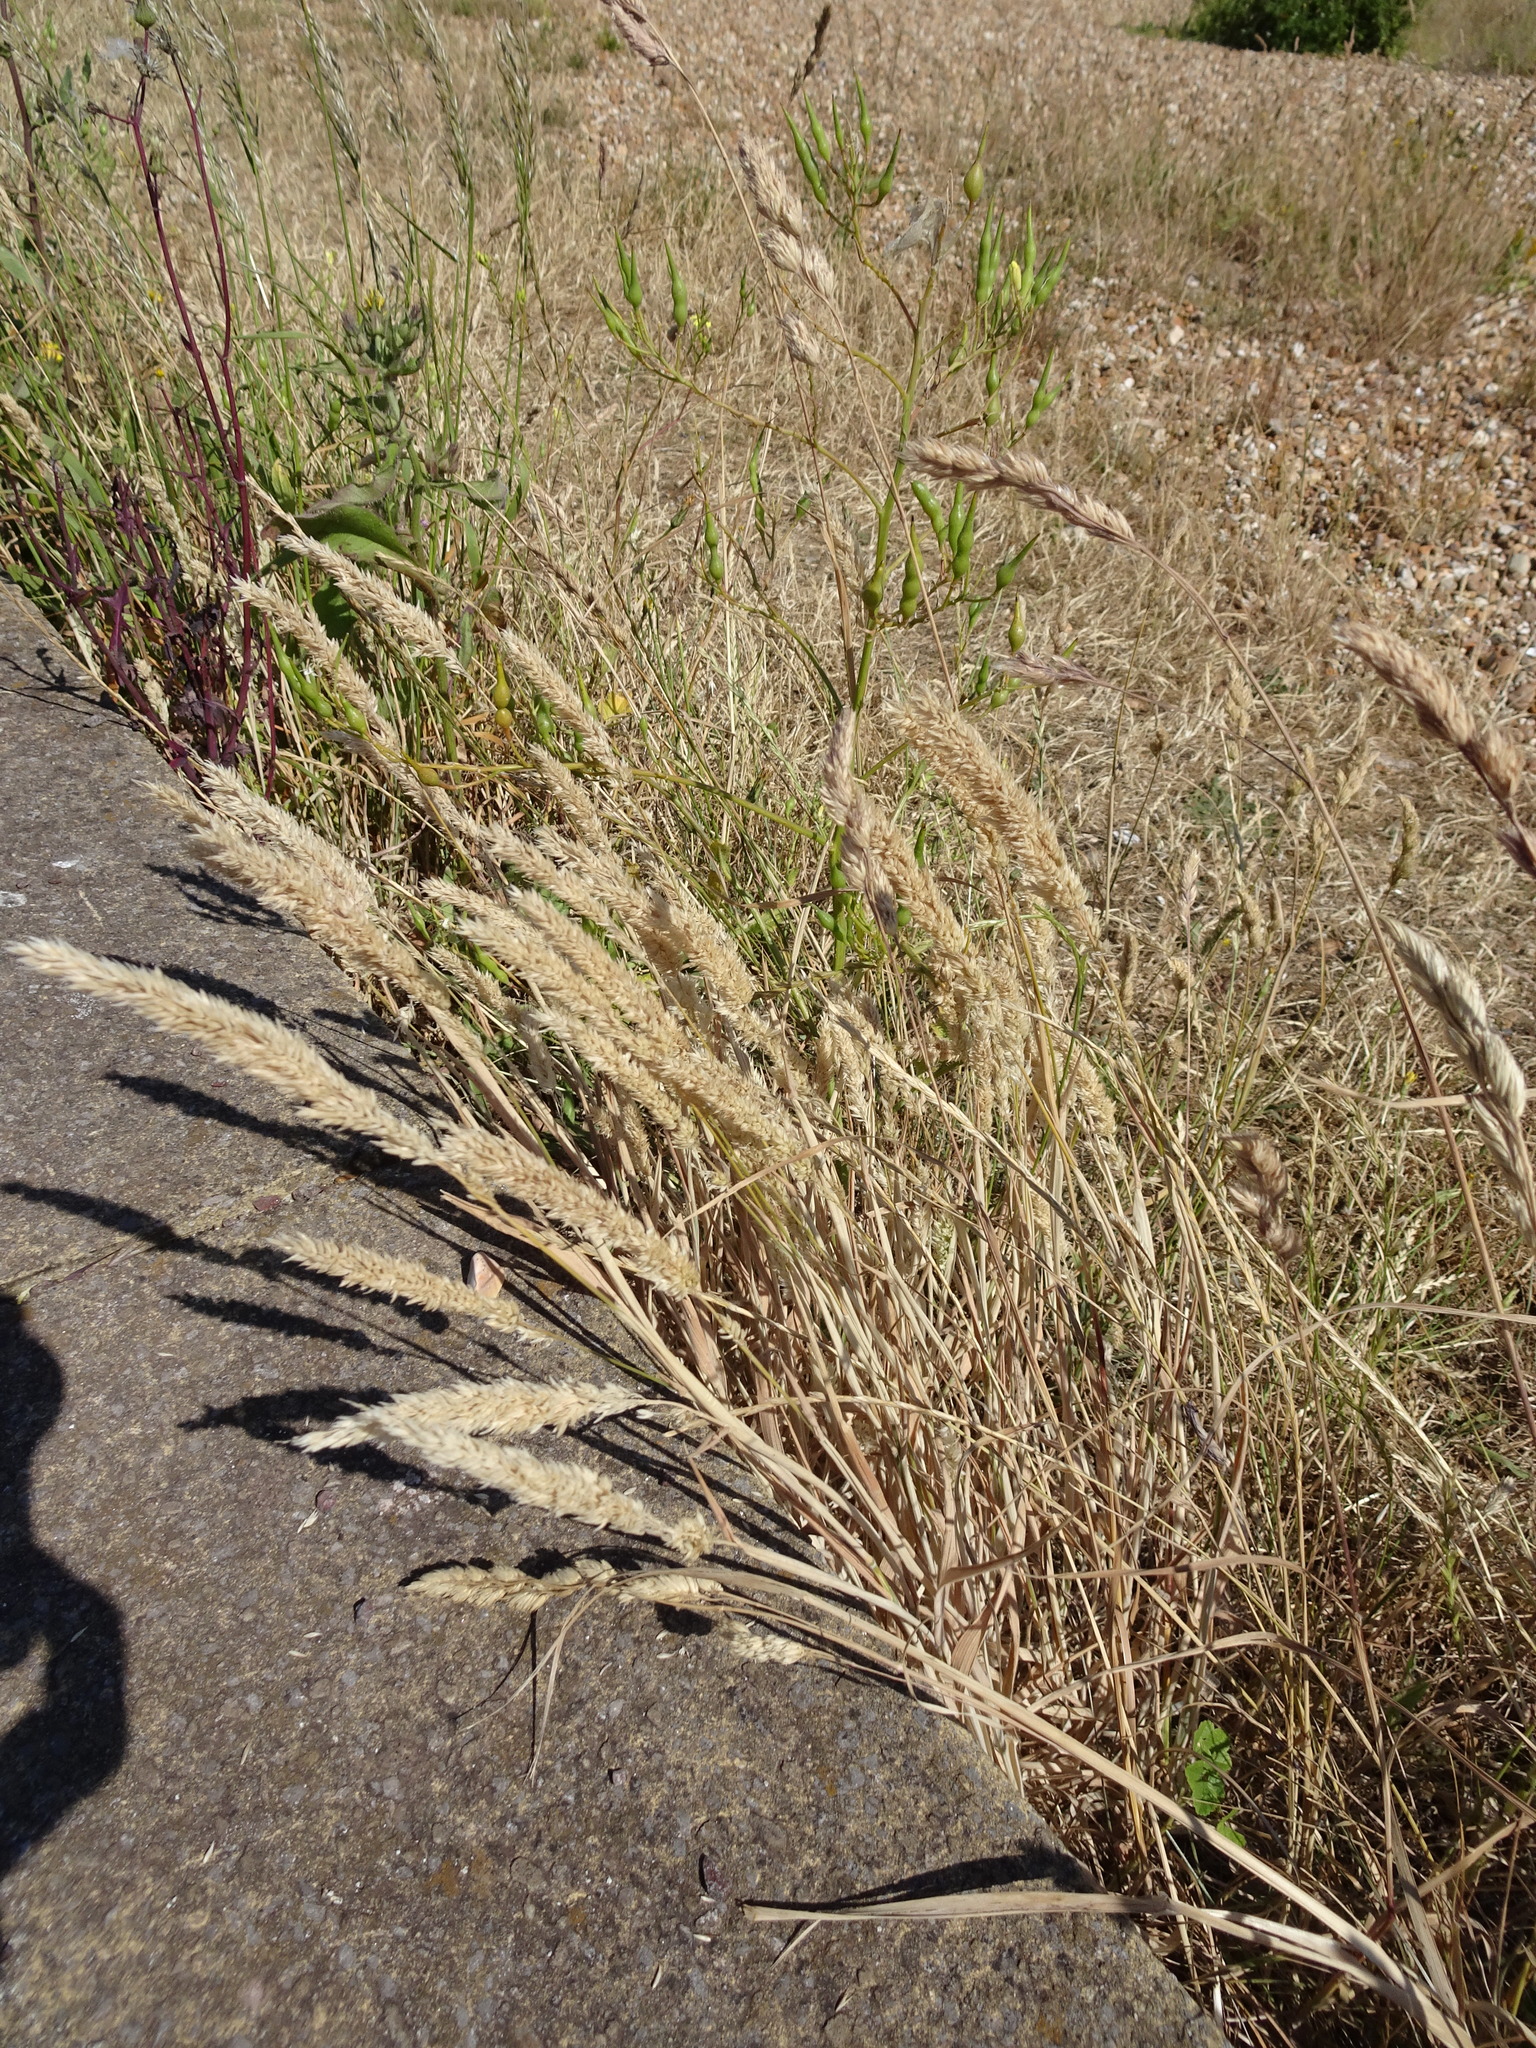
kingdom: Plantae
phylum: Tracheophyta
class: Liliopsida
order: Poales
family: Poaceae
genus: Holcus
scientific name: Holcus lanatus
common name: Yorkshire-fog
